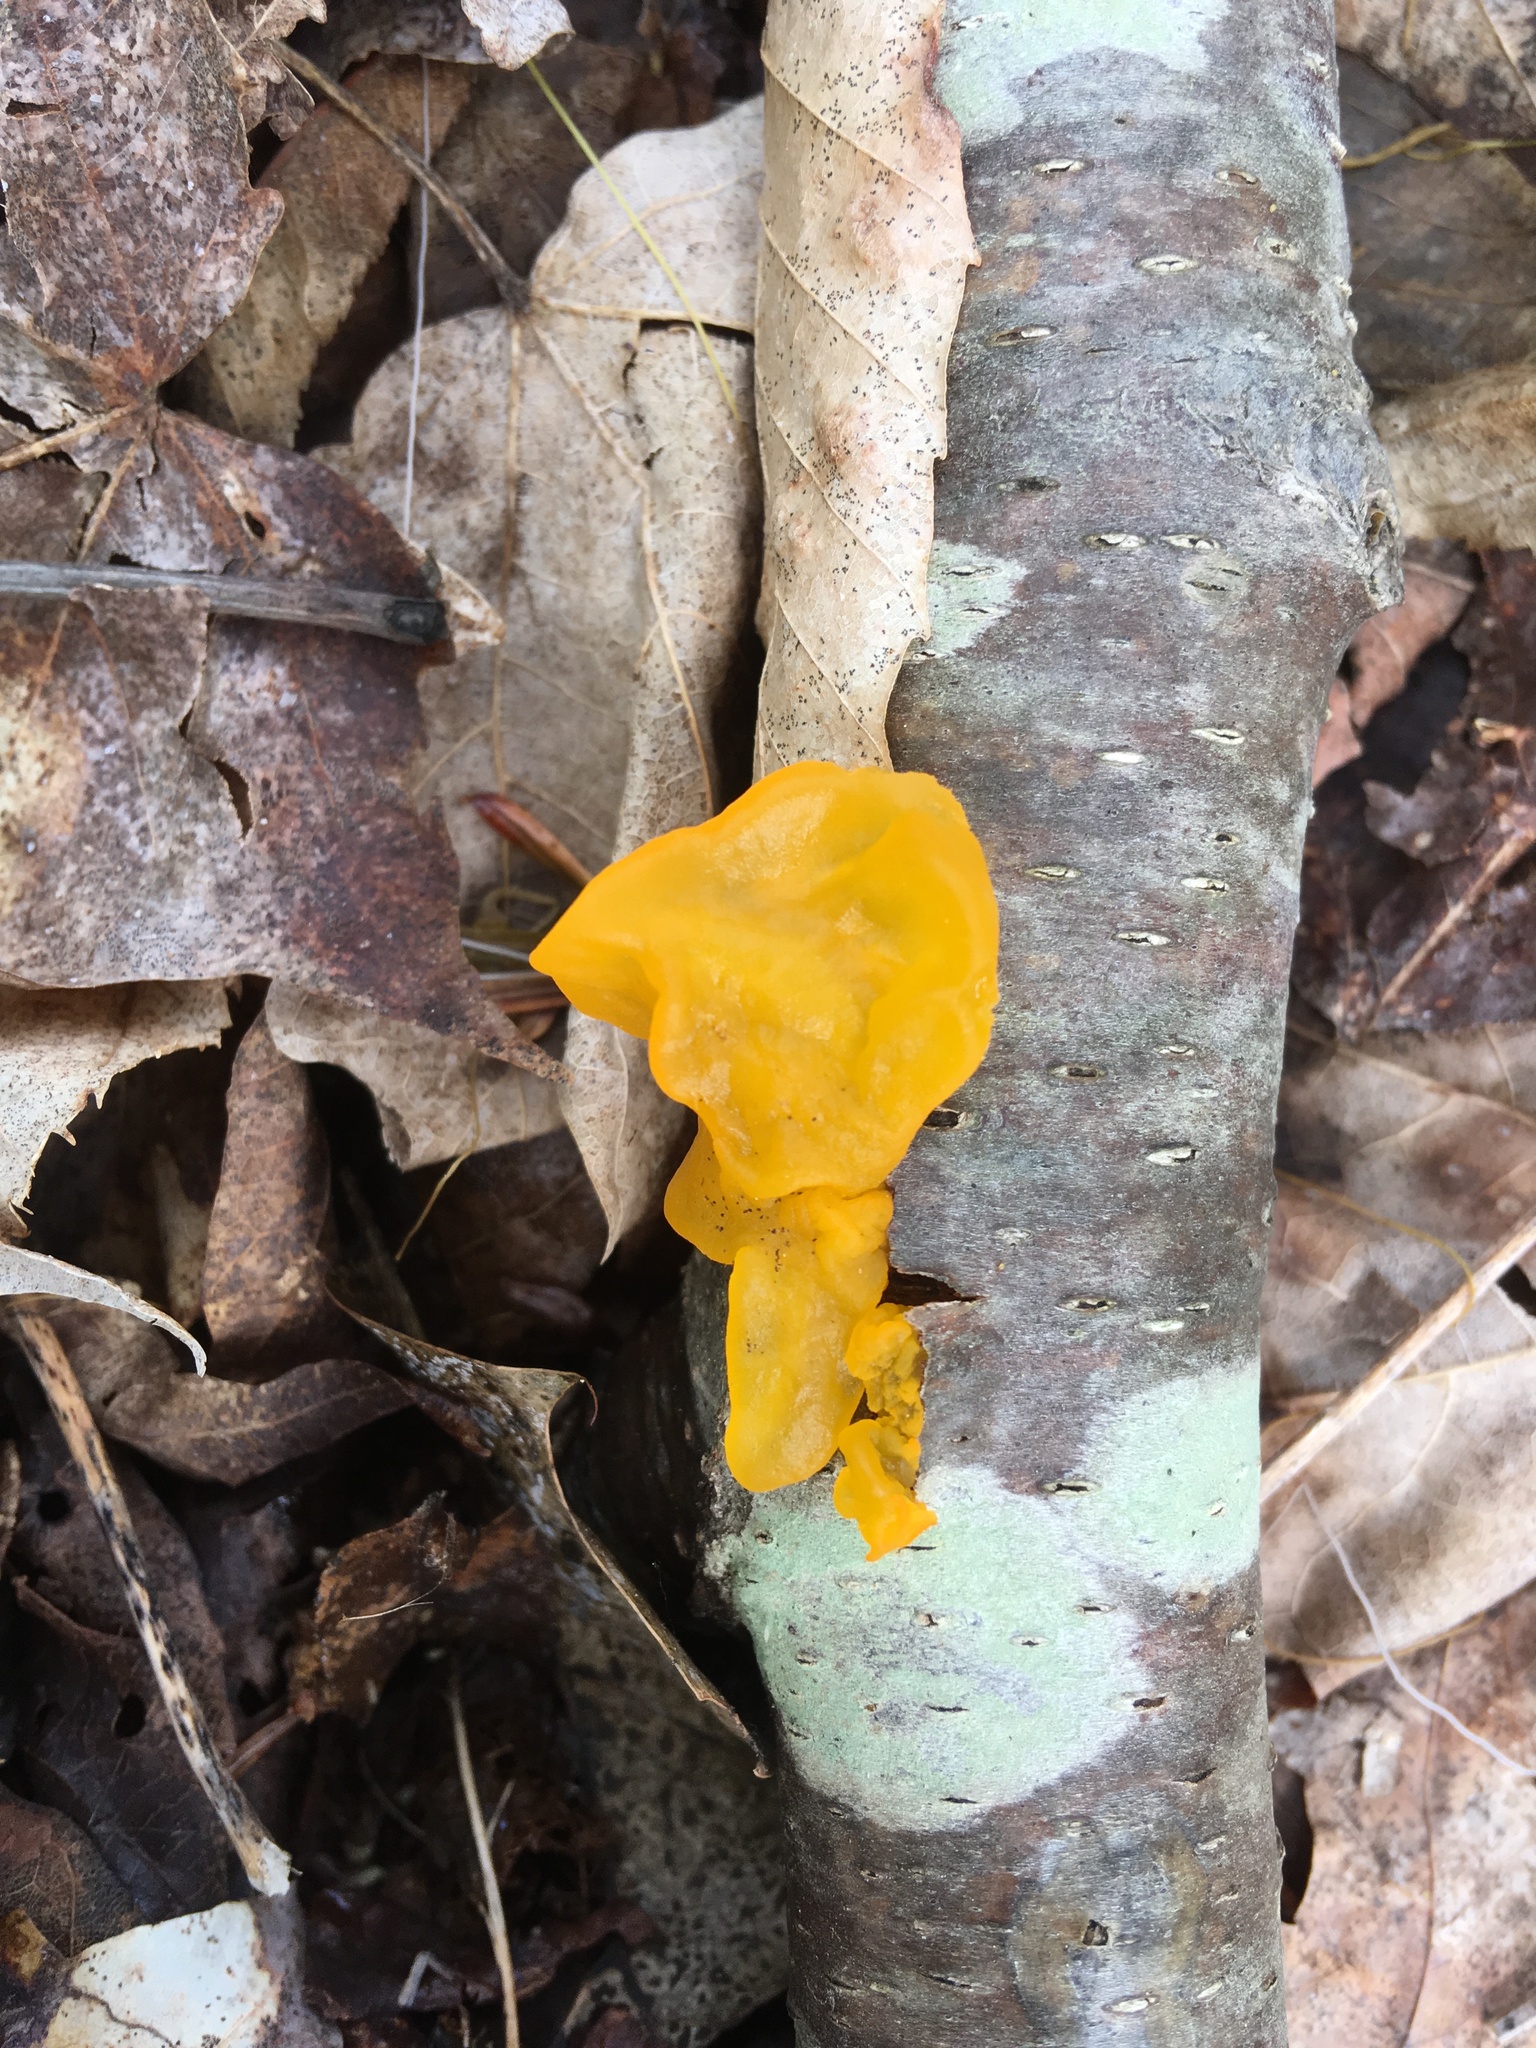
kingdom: Fungi
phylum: Basidiomycota
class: Tremellomycetes
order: Tremellales
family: Tremellaceae
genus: Tremella
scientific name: Tremella mesenterica
